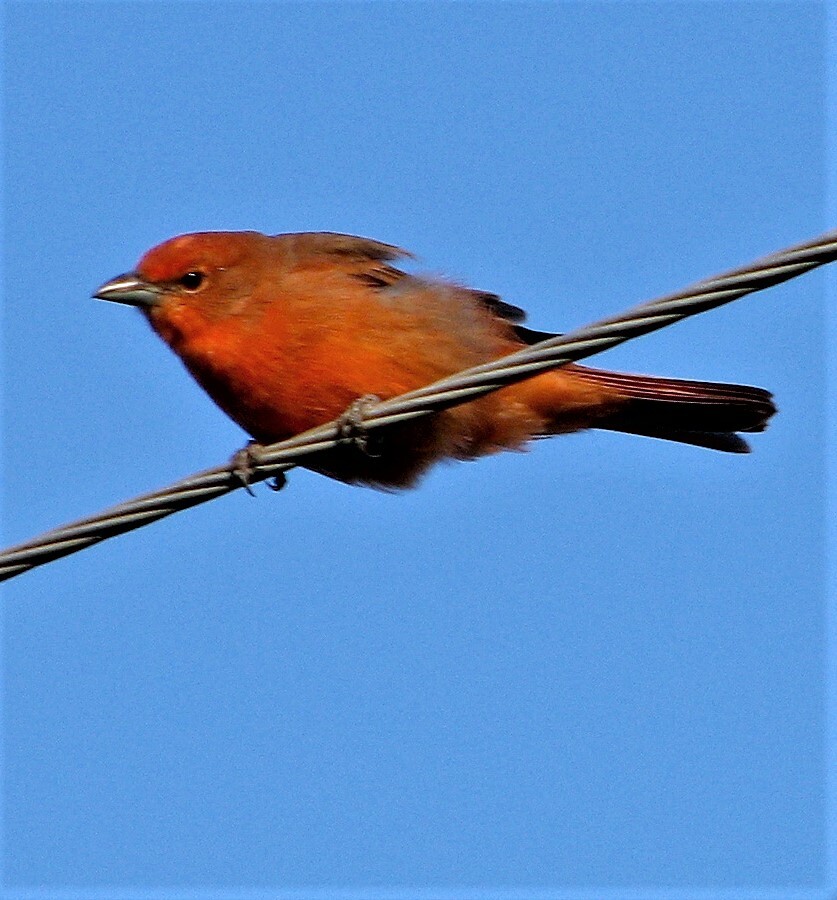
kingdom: Animalia
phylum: Chordata
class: Aves
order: Passeriformes
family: Cardinalidae
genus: Piranga
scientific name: Piranga flava
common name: Red tanager
